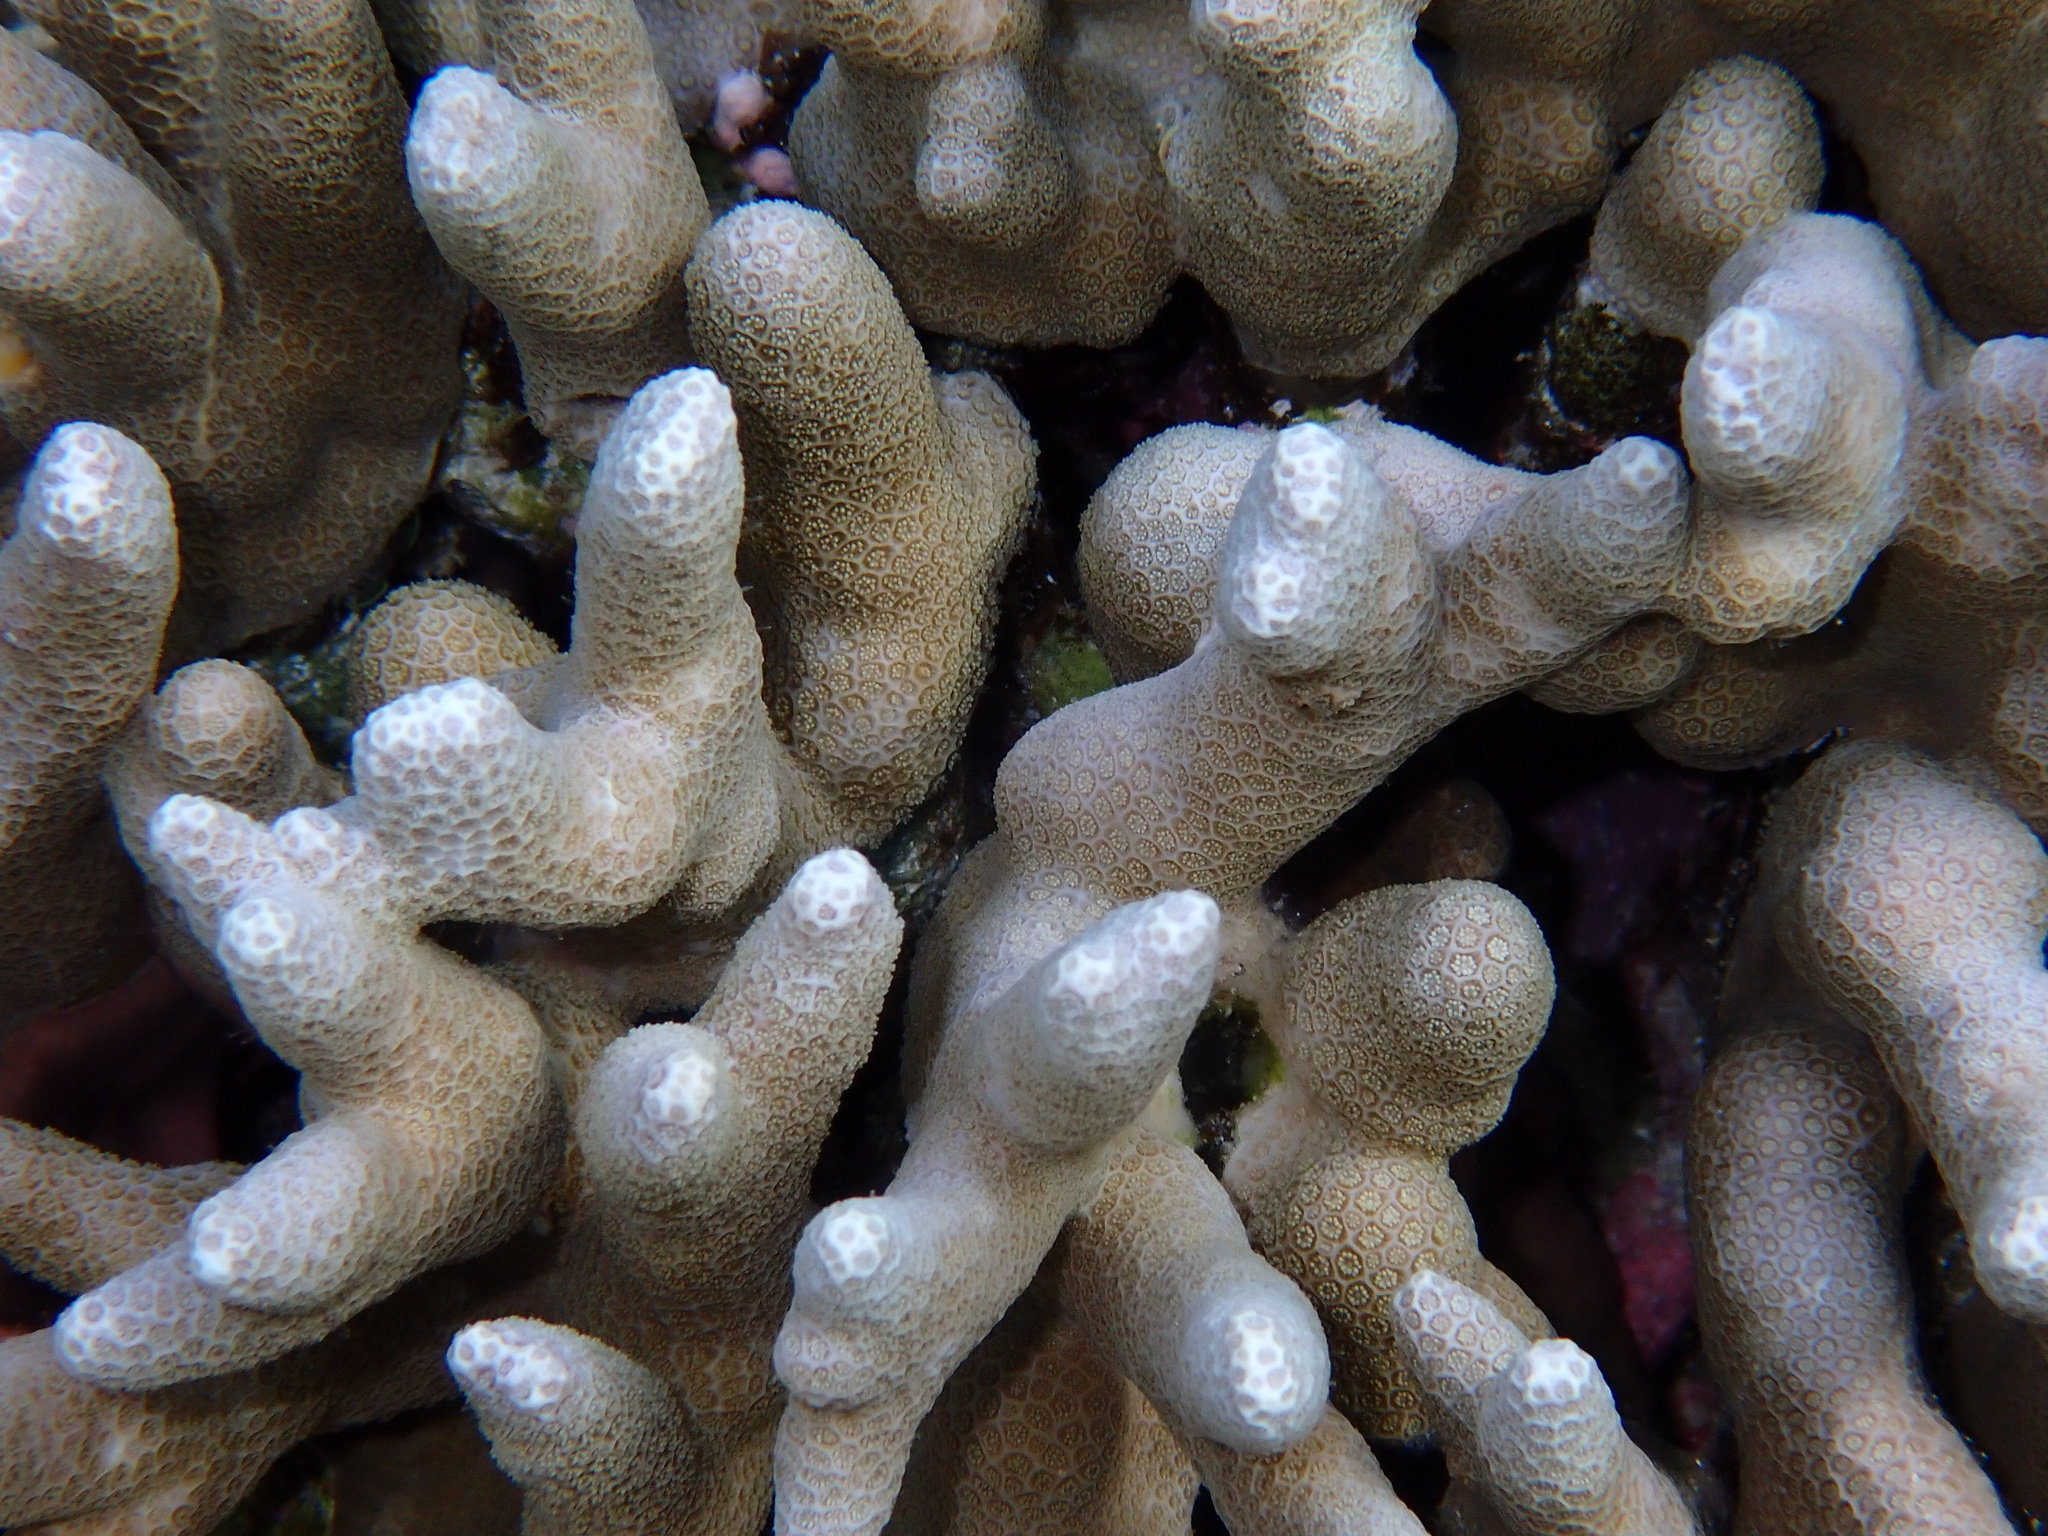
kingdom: Animalia
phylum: Cnidaria
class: Anthozoa
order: Scleractinia
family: Poritidae
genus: Porites
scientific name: Porites cylindrica
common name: Hump coral
